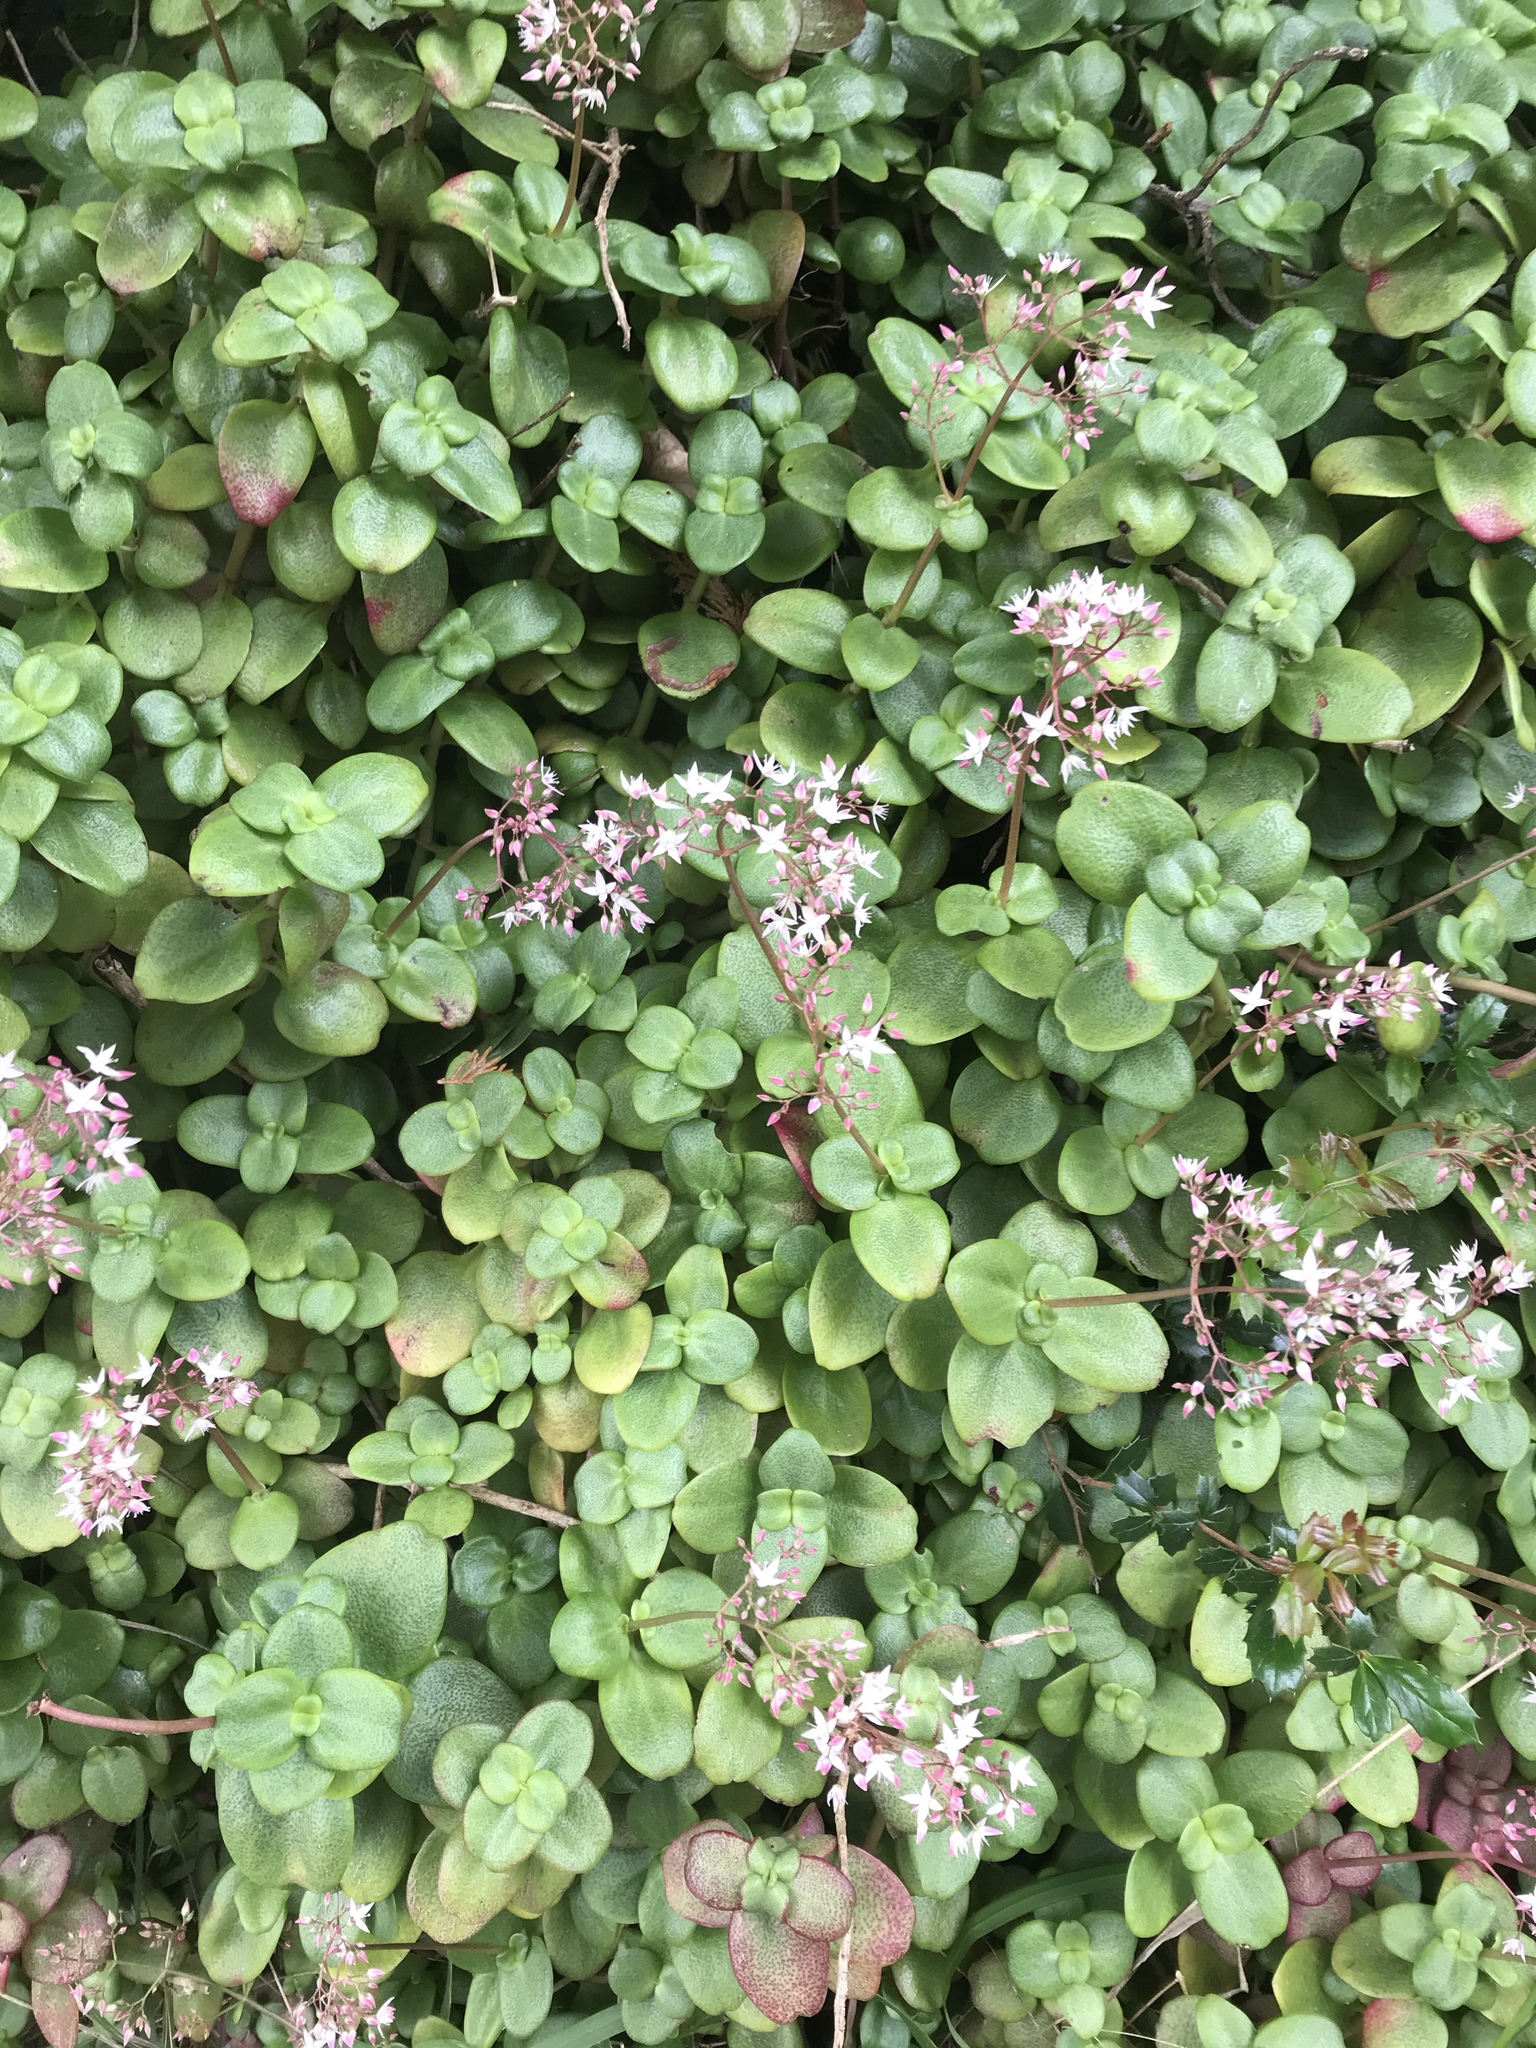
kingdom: Plantae
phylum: Tracheophyta
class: Magnoliopsida
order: Saxifragales
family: Crassulaceae
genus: Crassula
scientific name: Crassula multicava
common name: Cape province pygmyweed
